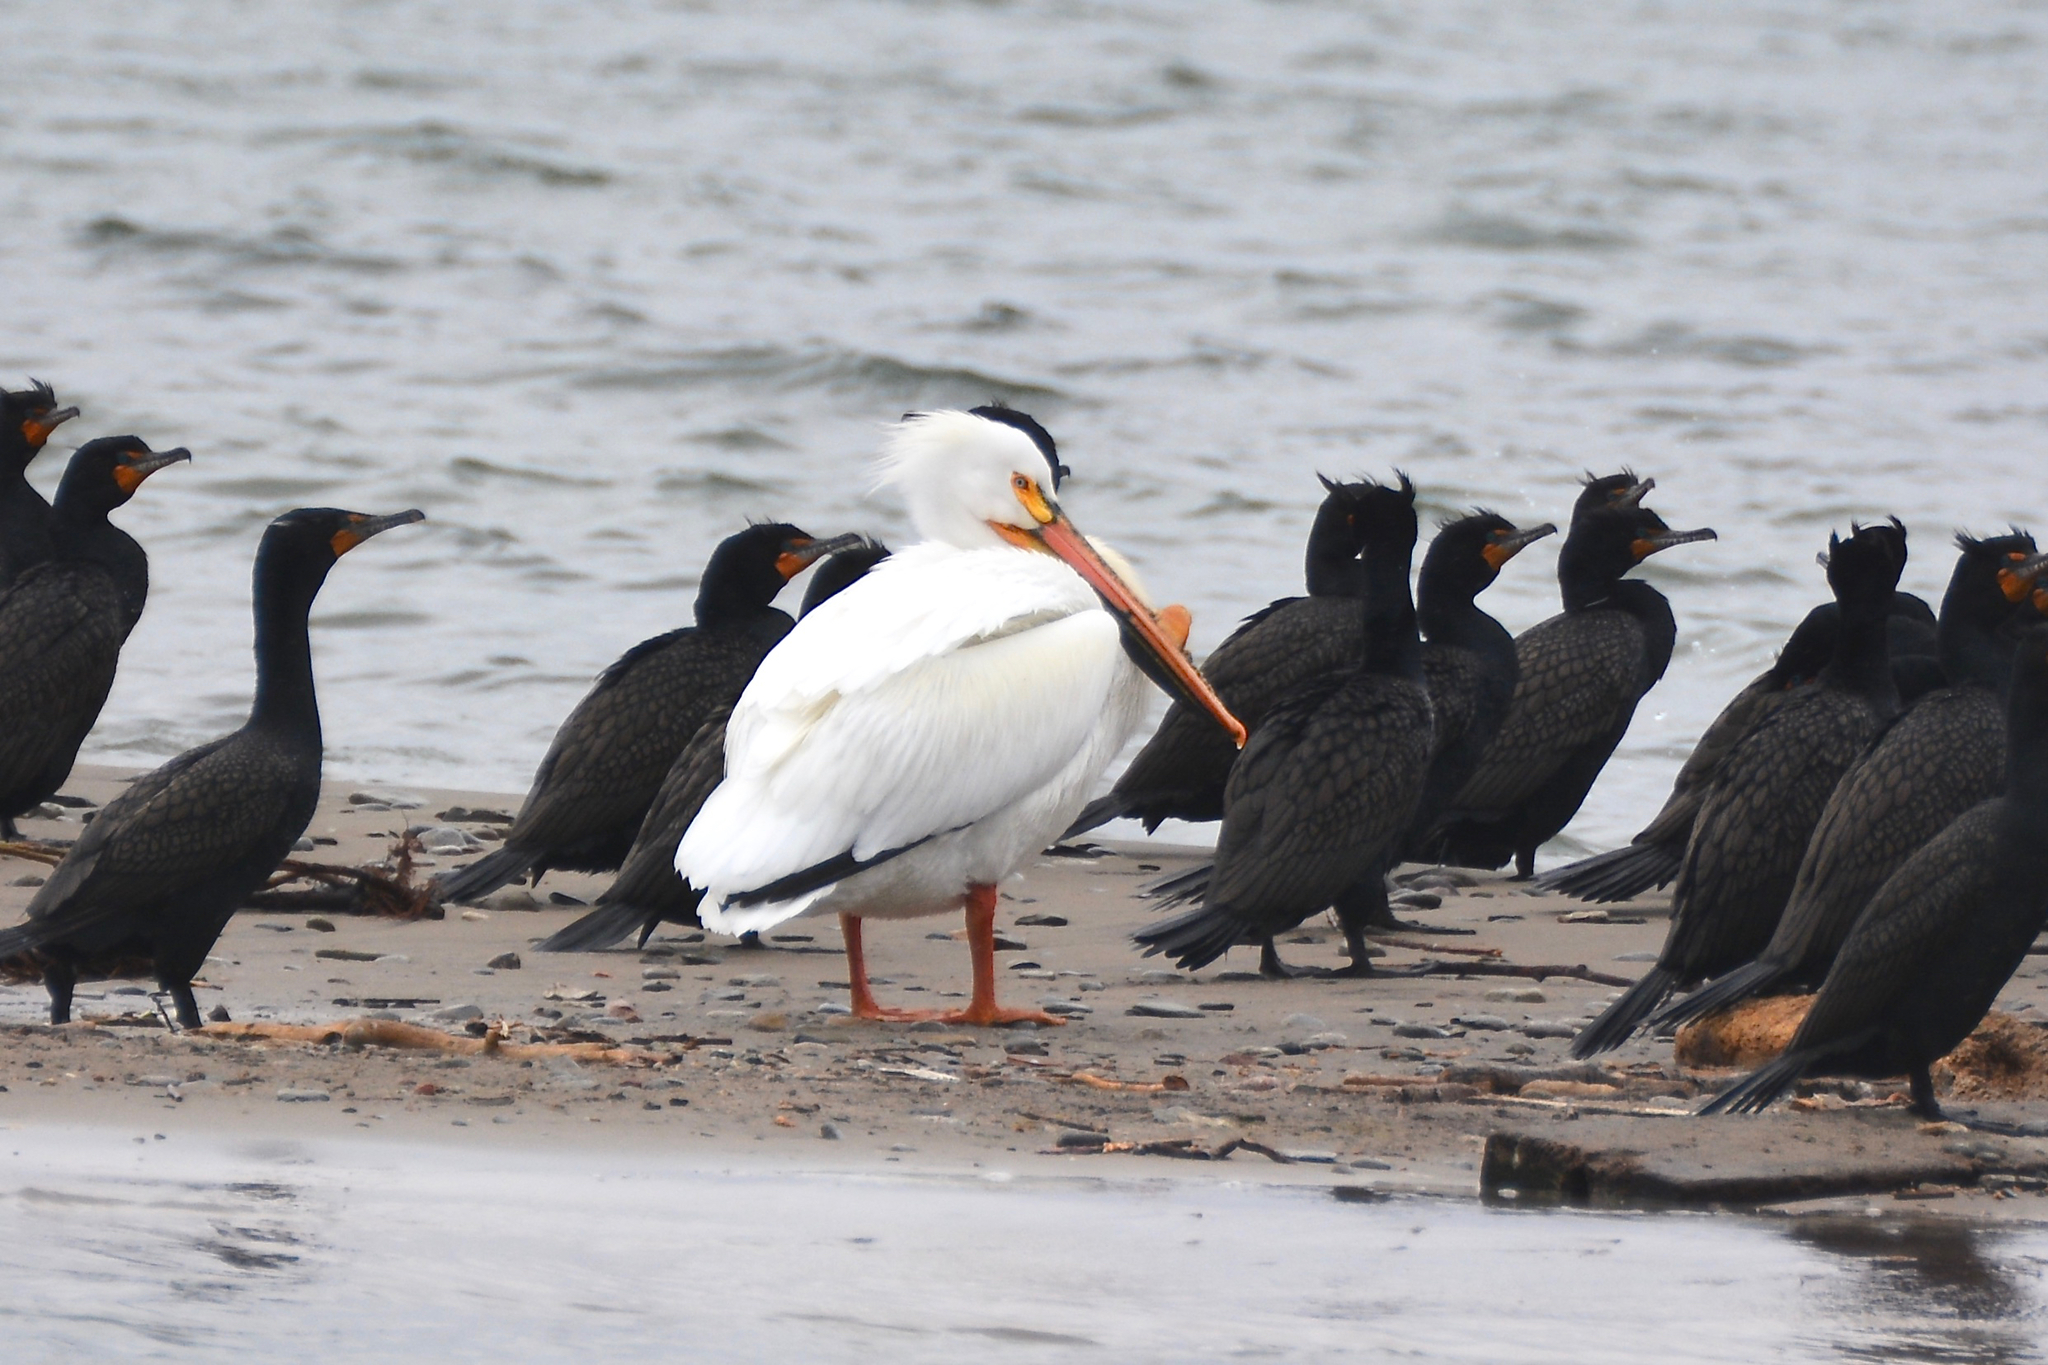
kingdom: Animalia
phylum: Chordata
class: Aves
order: Pelecaniformes
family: Pelecanidae
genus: Pelecanus
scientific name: Pelecanus erythrorhynchos
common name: American white pelican
